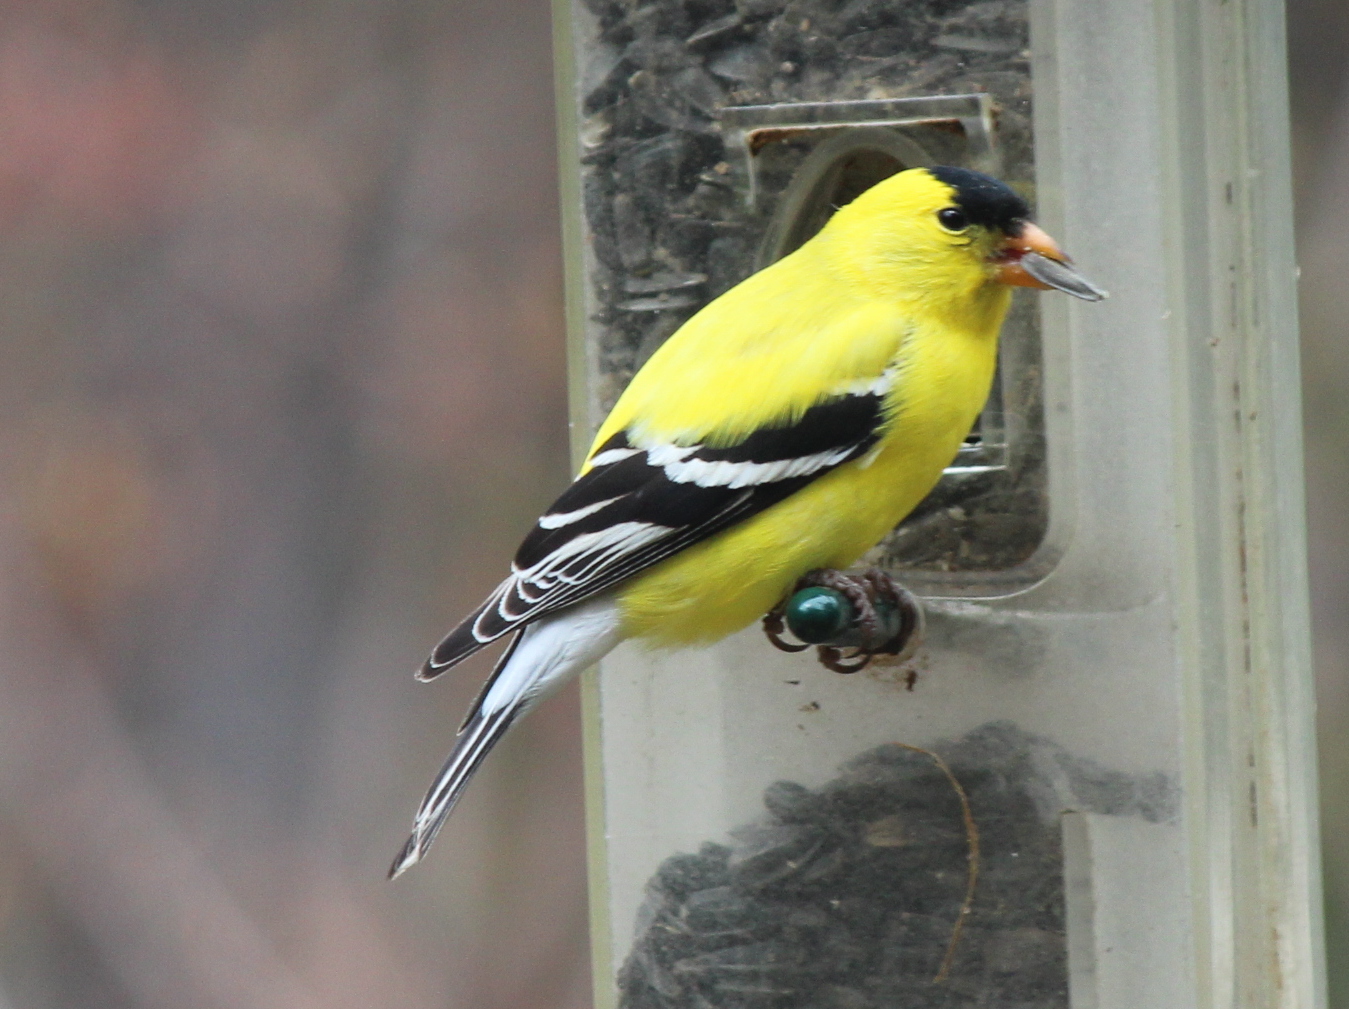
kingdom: Animalia
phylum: Chordata
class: Aves
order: Passeriformes
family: Fringillidae
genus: Spinus
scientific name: Spinus tristis
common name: American goldfinch
